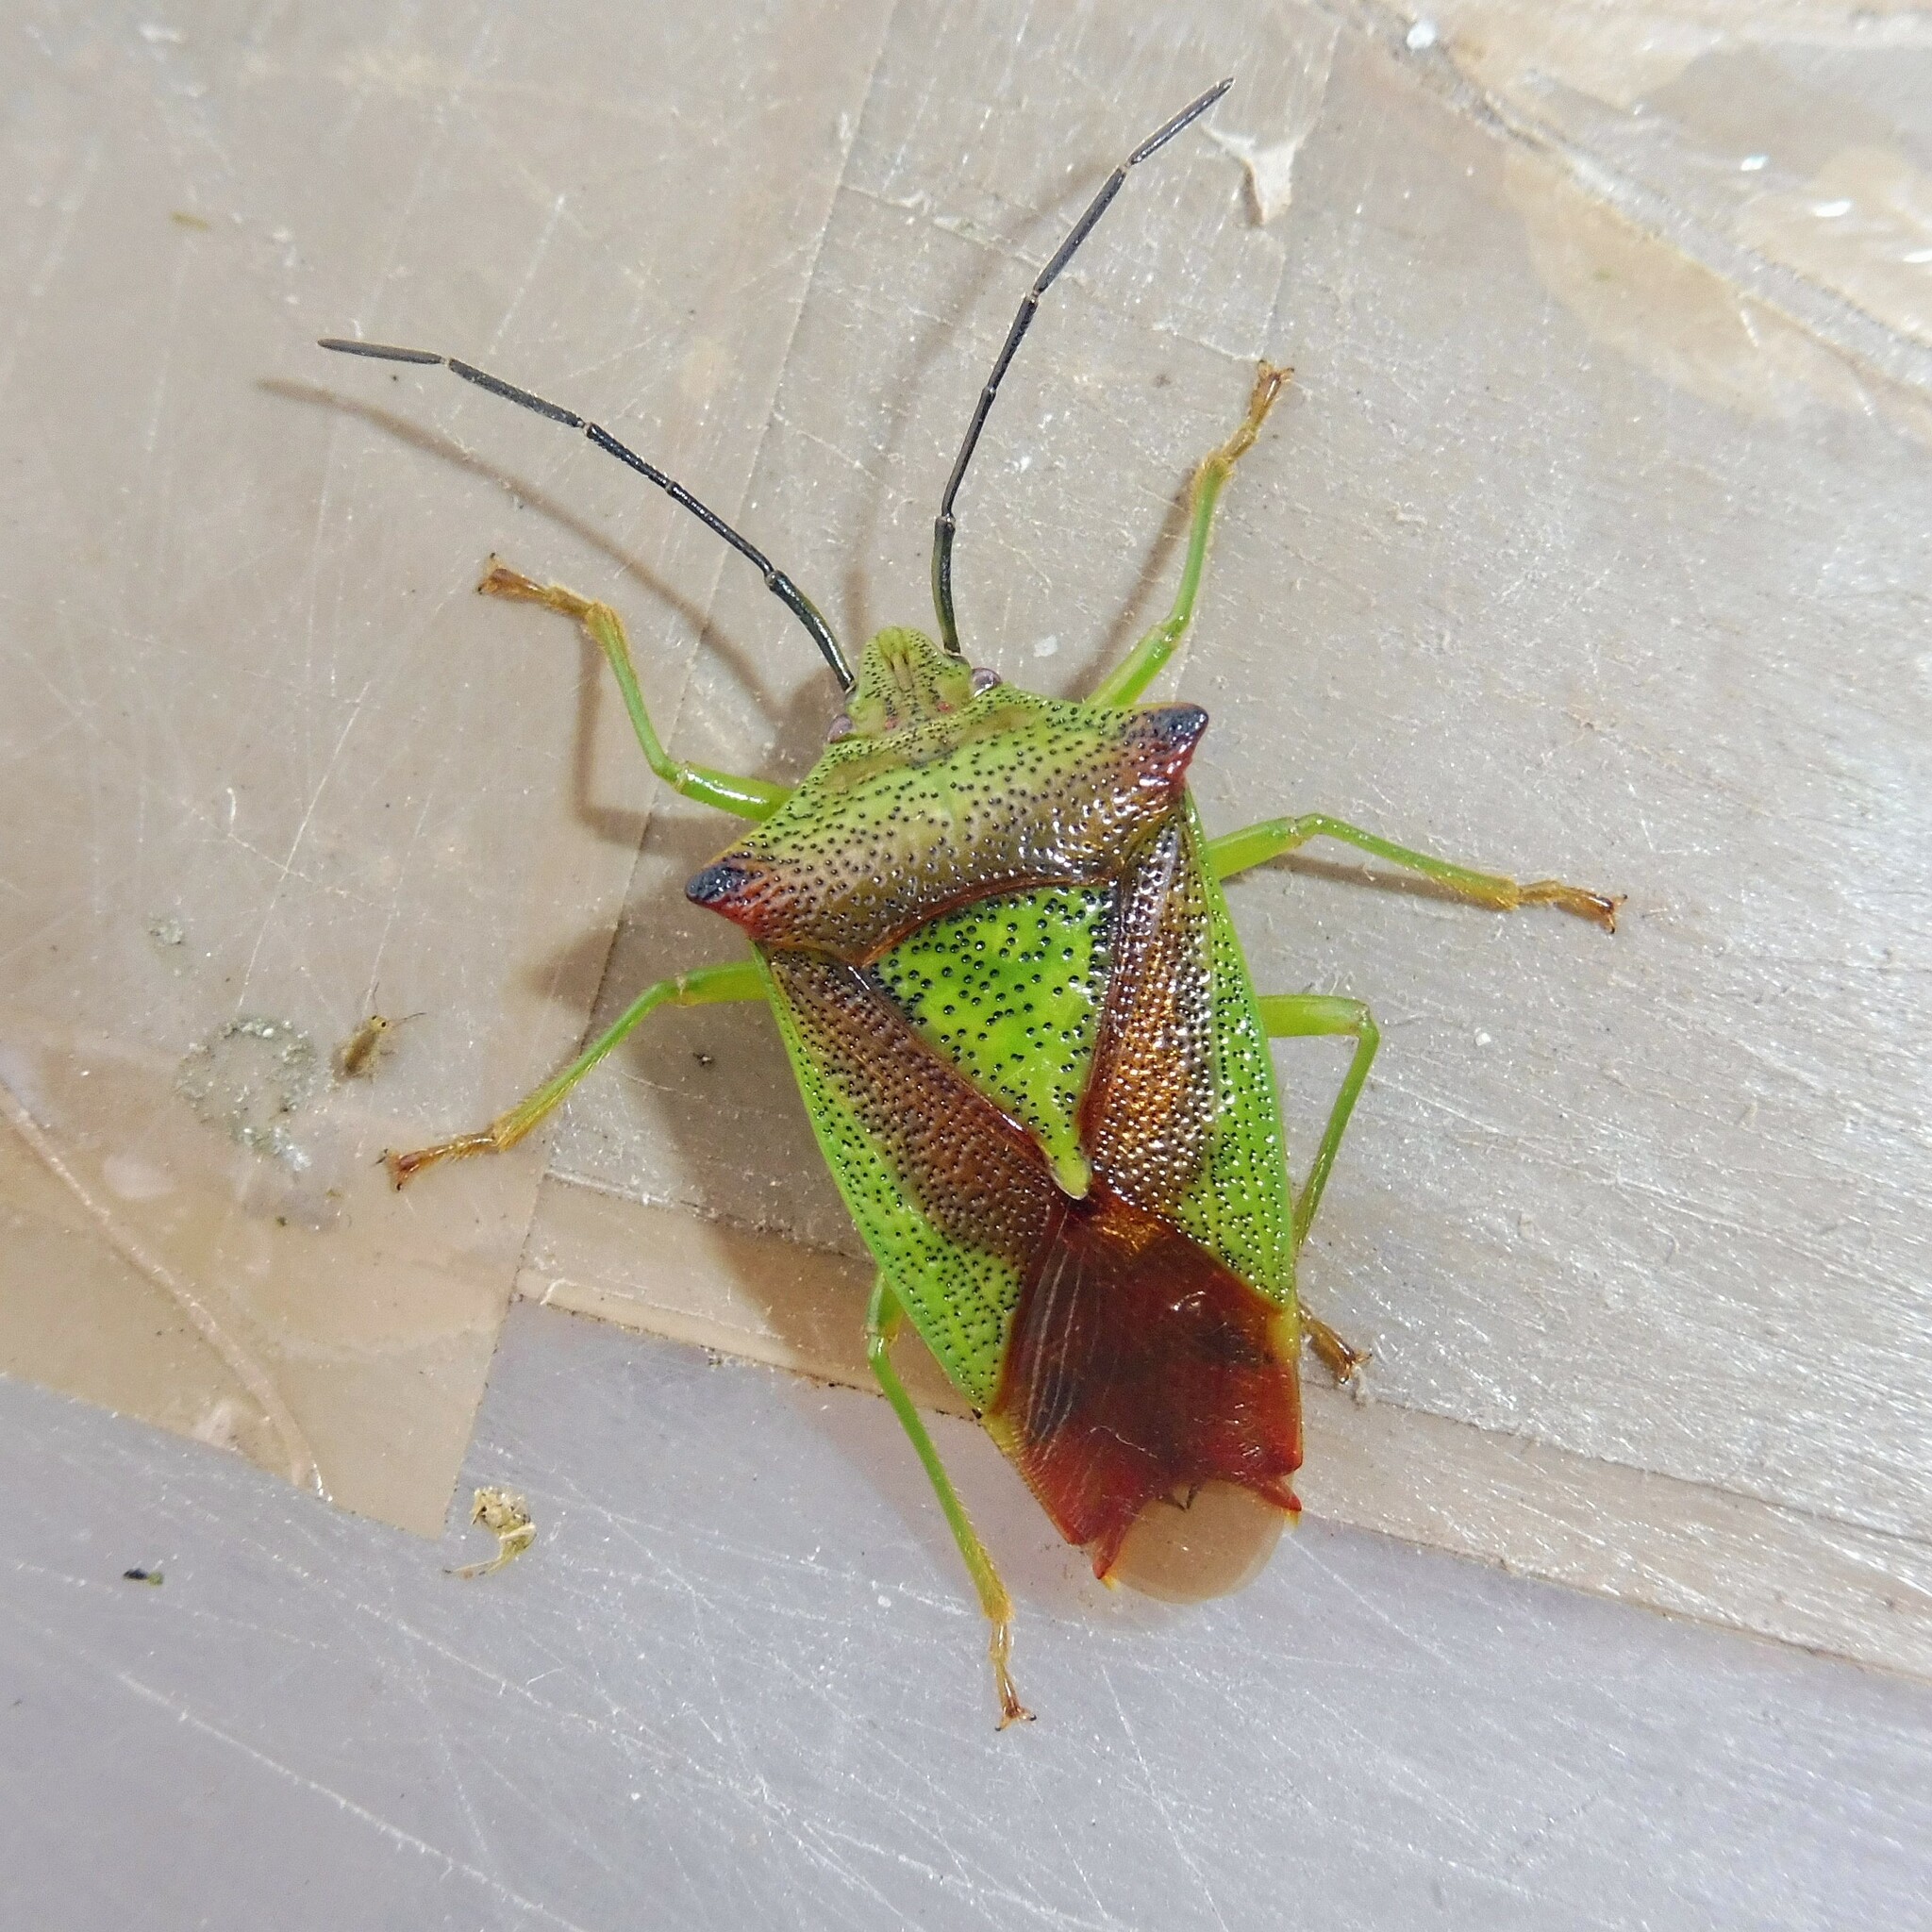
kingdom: Animalia
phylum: Arthropoda
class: Insecta
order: Hemiptera
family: Acanthosomatidae
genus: Acanthosoma
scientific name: Acanthosoma haemorrhoidale
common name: Hawthorn shieldbug
